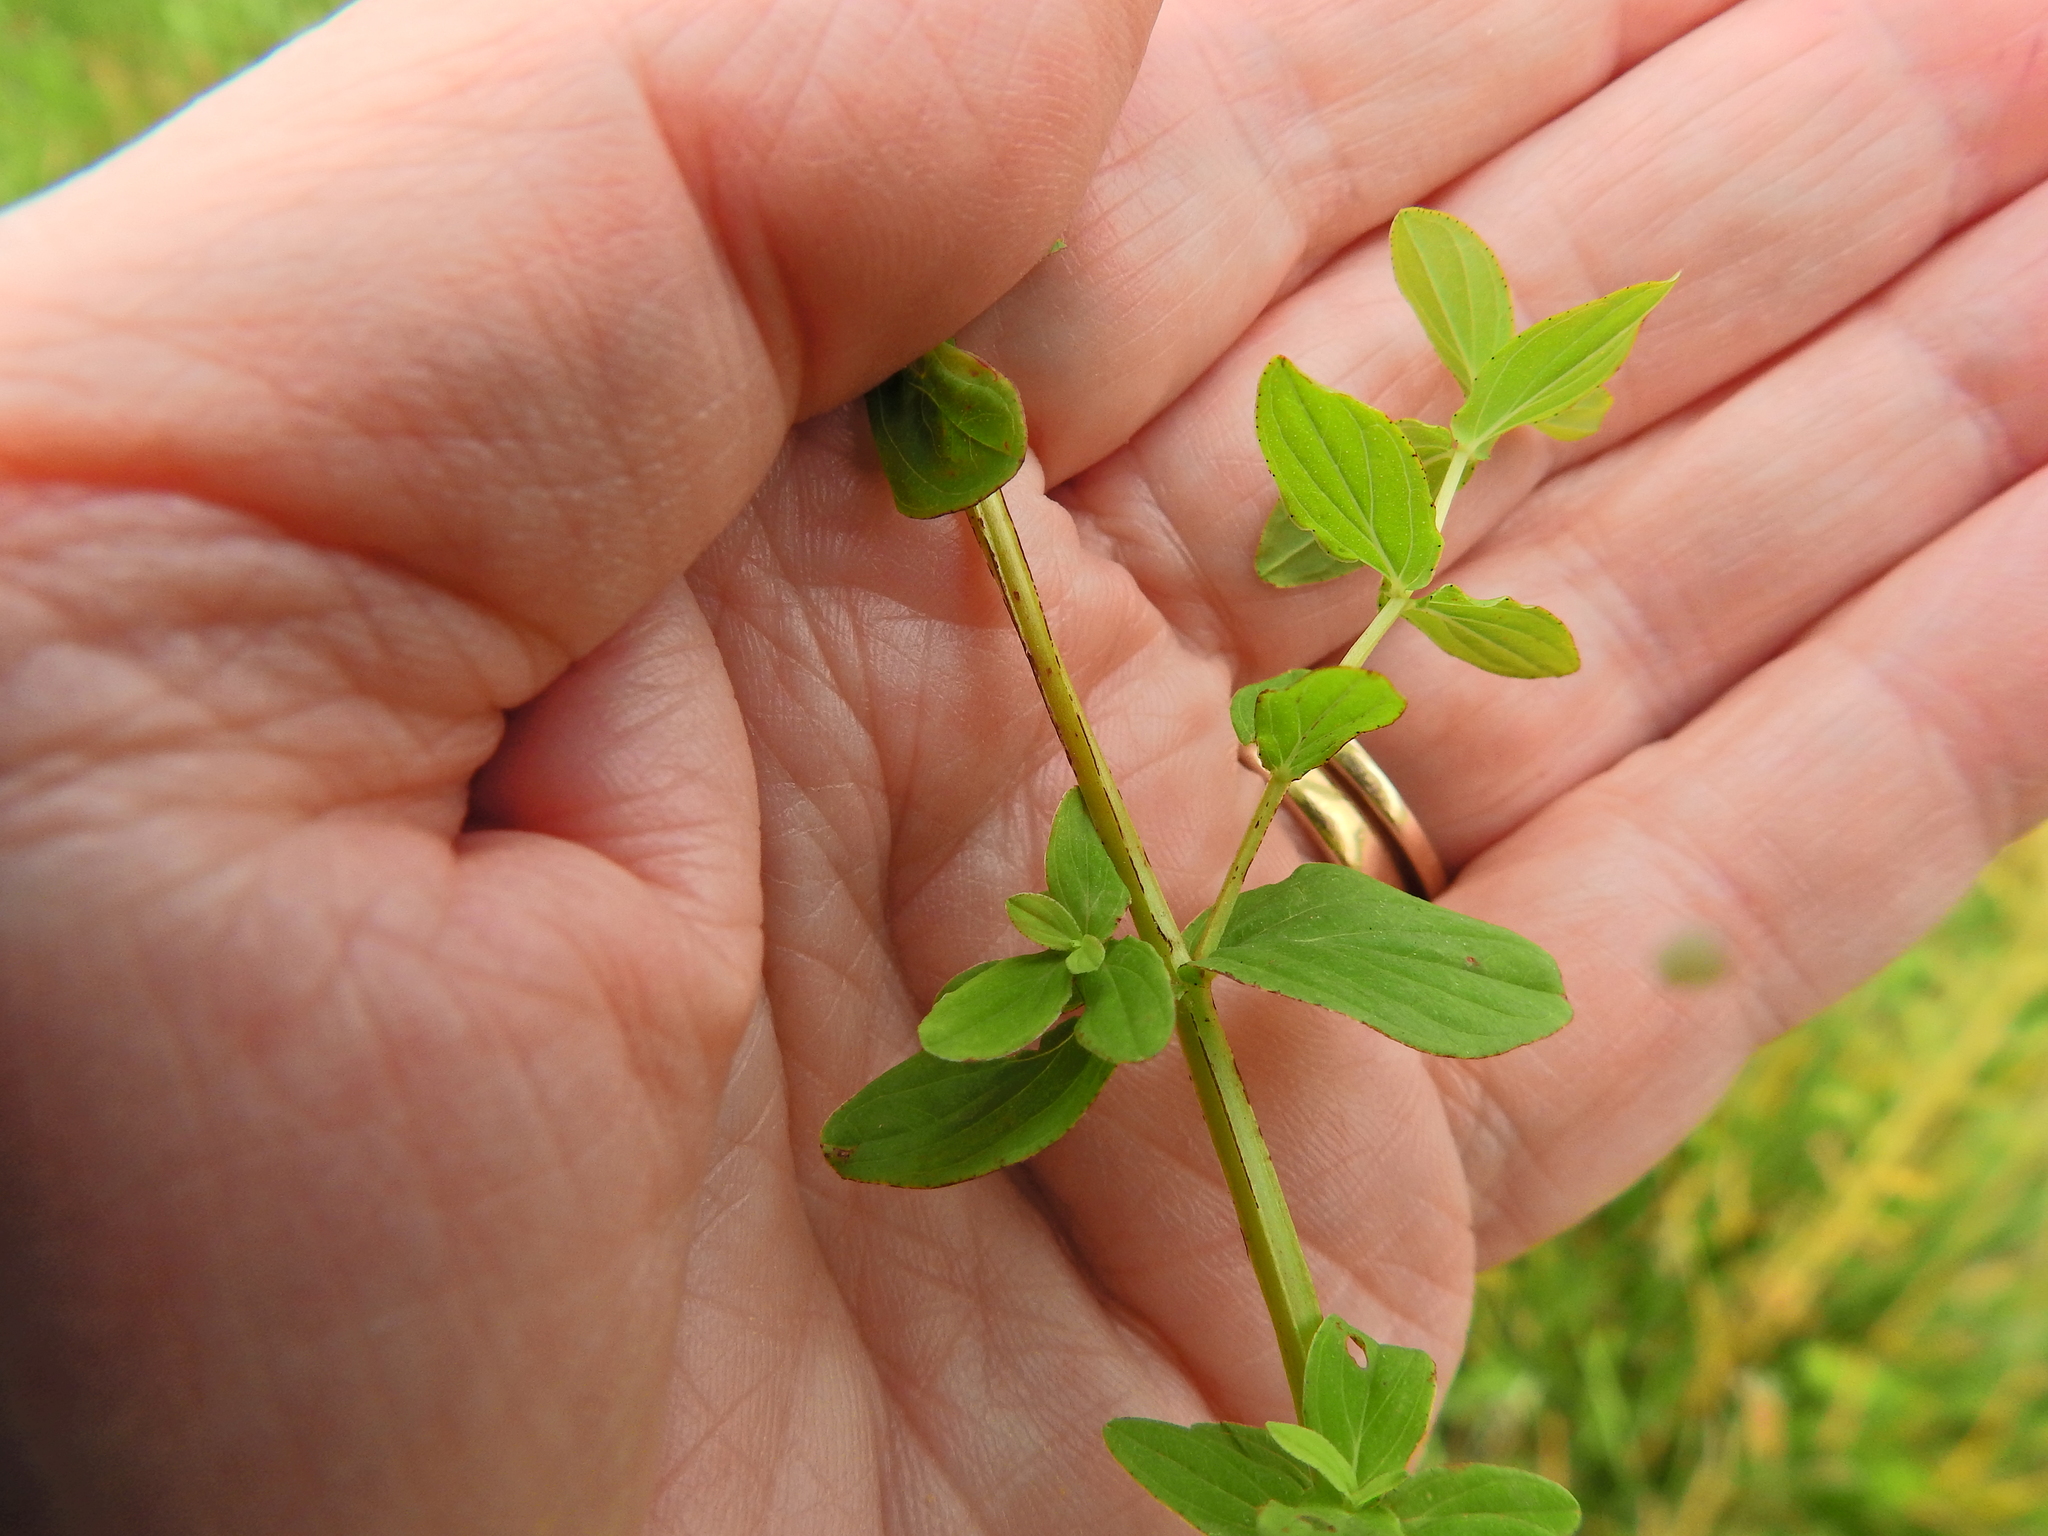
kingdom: Plantae
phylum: Tracheophyta
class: Magnoliopsida
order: Malpighiales
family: Hypericaceae
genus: Hypericum
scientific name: Hypericum tetrapterum
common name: Square-stalked st. john's-wort
